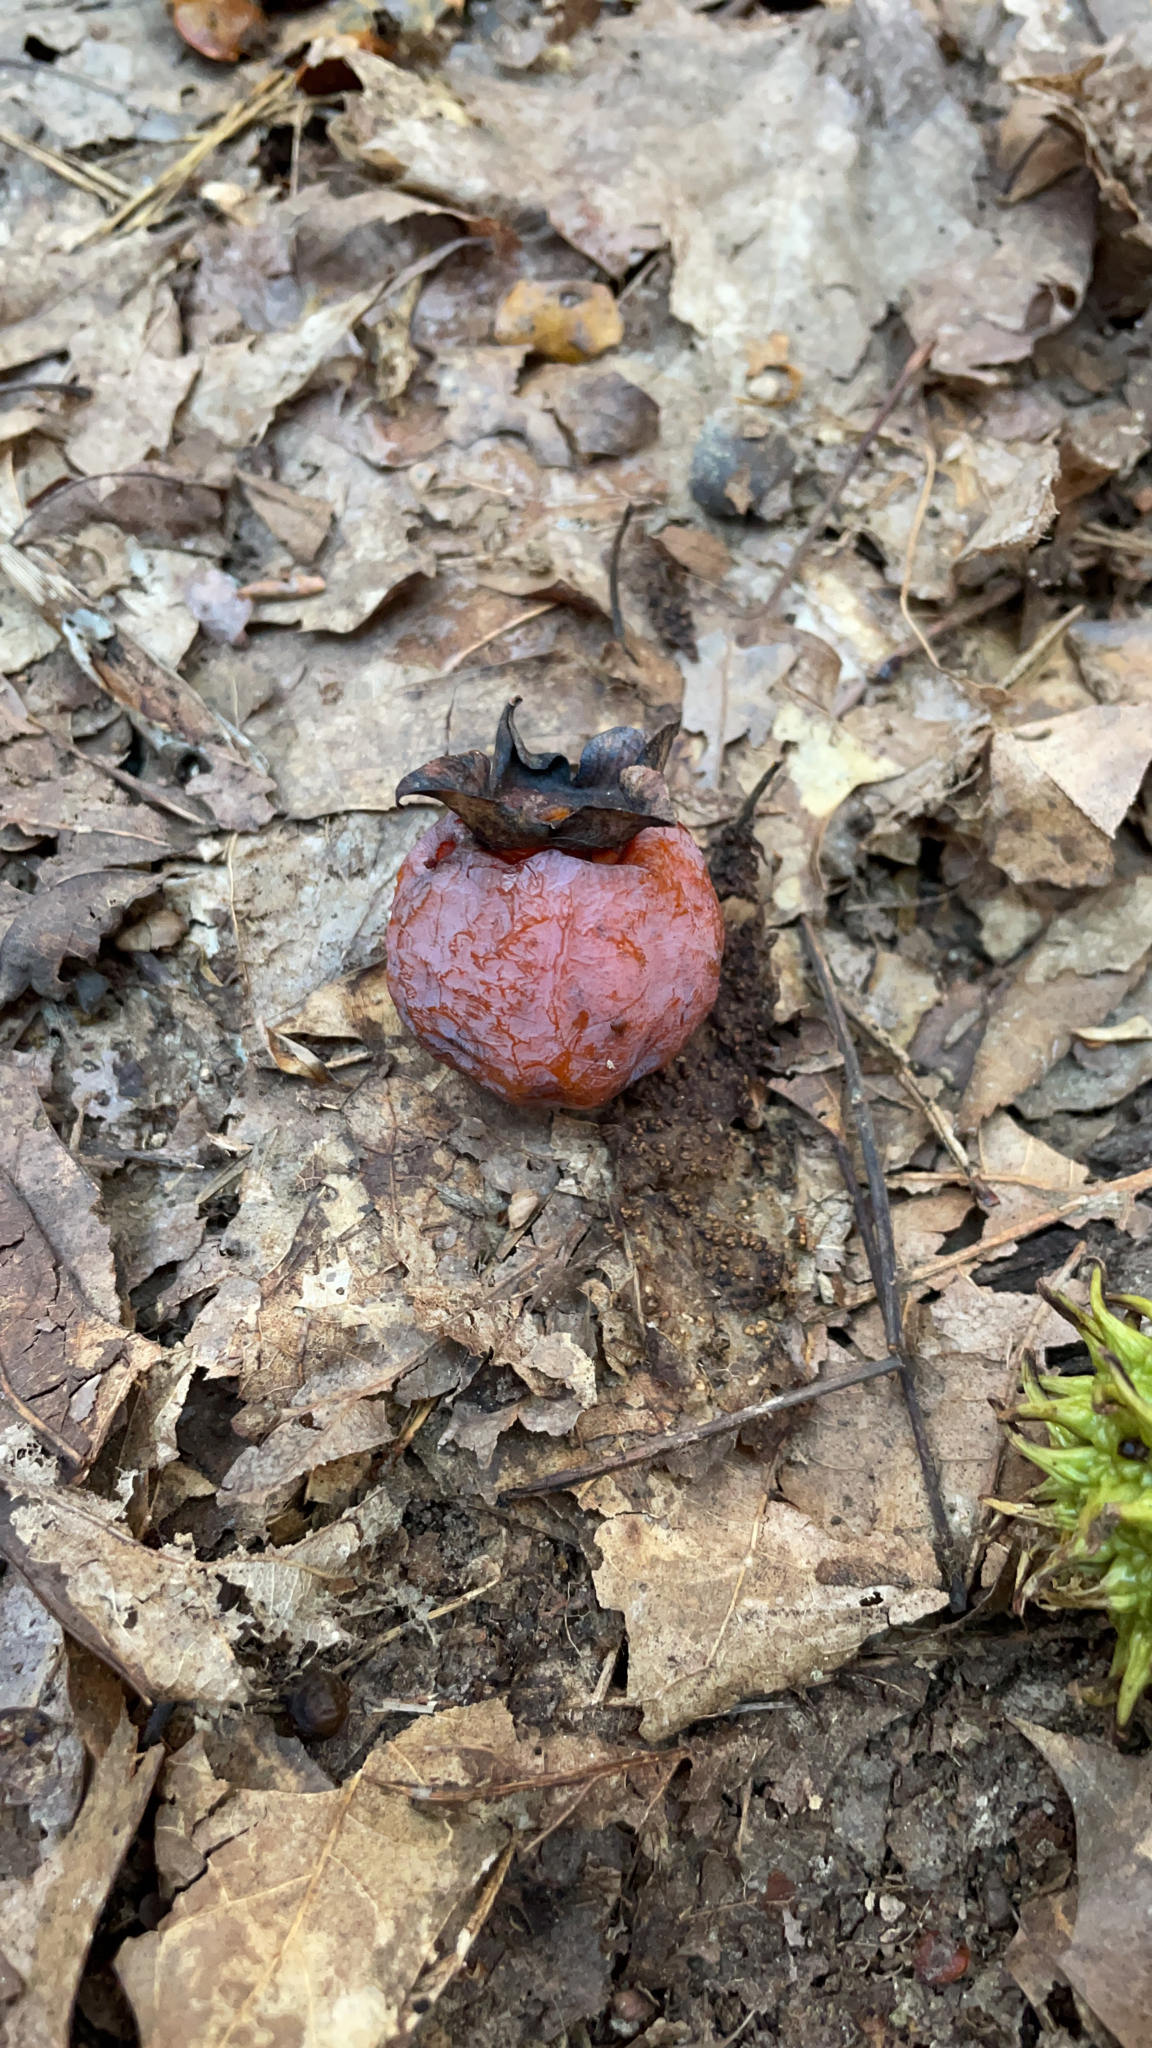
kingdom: Plantae
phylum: Tracheophyta
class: Magnoliopsida
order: Ericales
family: Ebenaceae
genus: Diospyros
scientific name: Diospyros virginiana
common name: Persimmon
